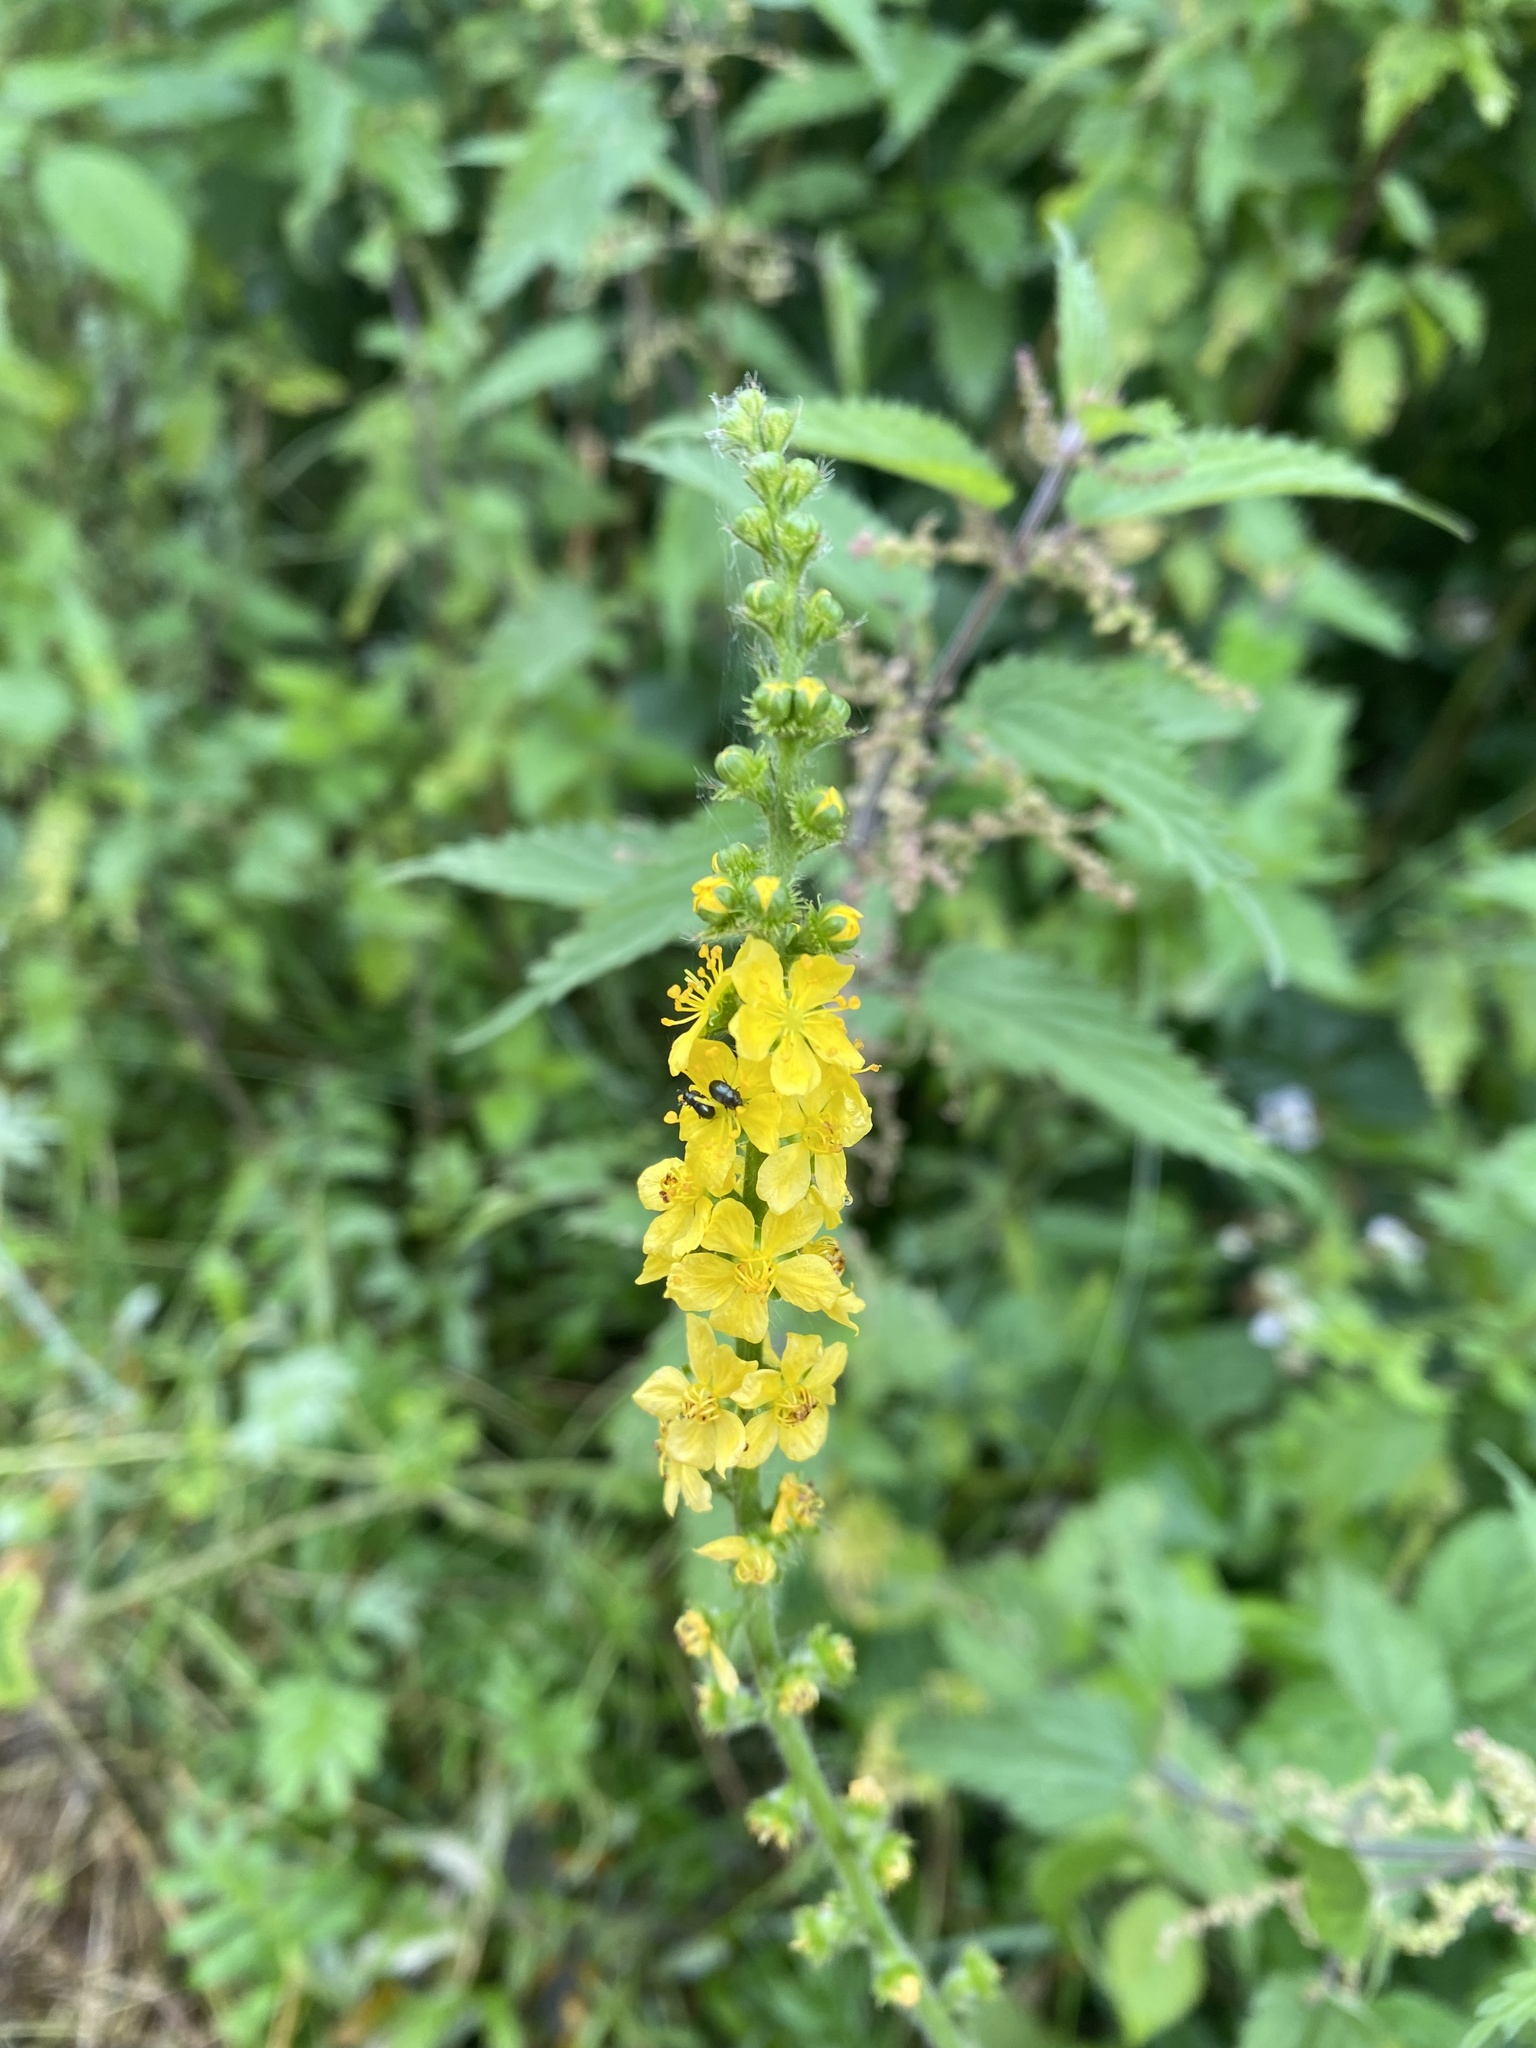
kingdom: Plantae
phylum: Tracheophyta
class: Magnoliopsida
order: Rosales
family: Rosaceae
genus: Agrimonia
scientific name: Agrimonia eupatoria
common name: Agrimony
